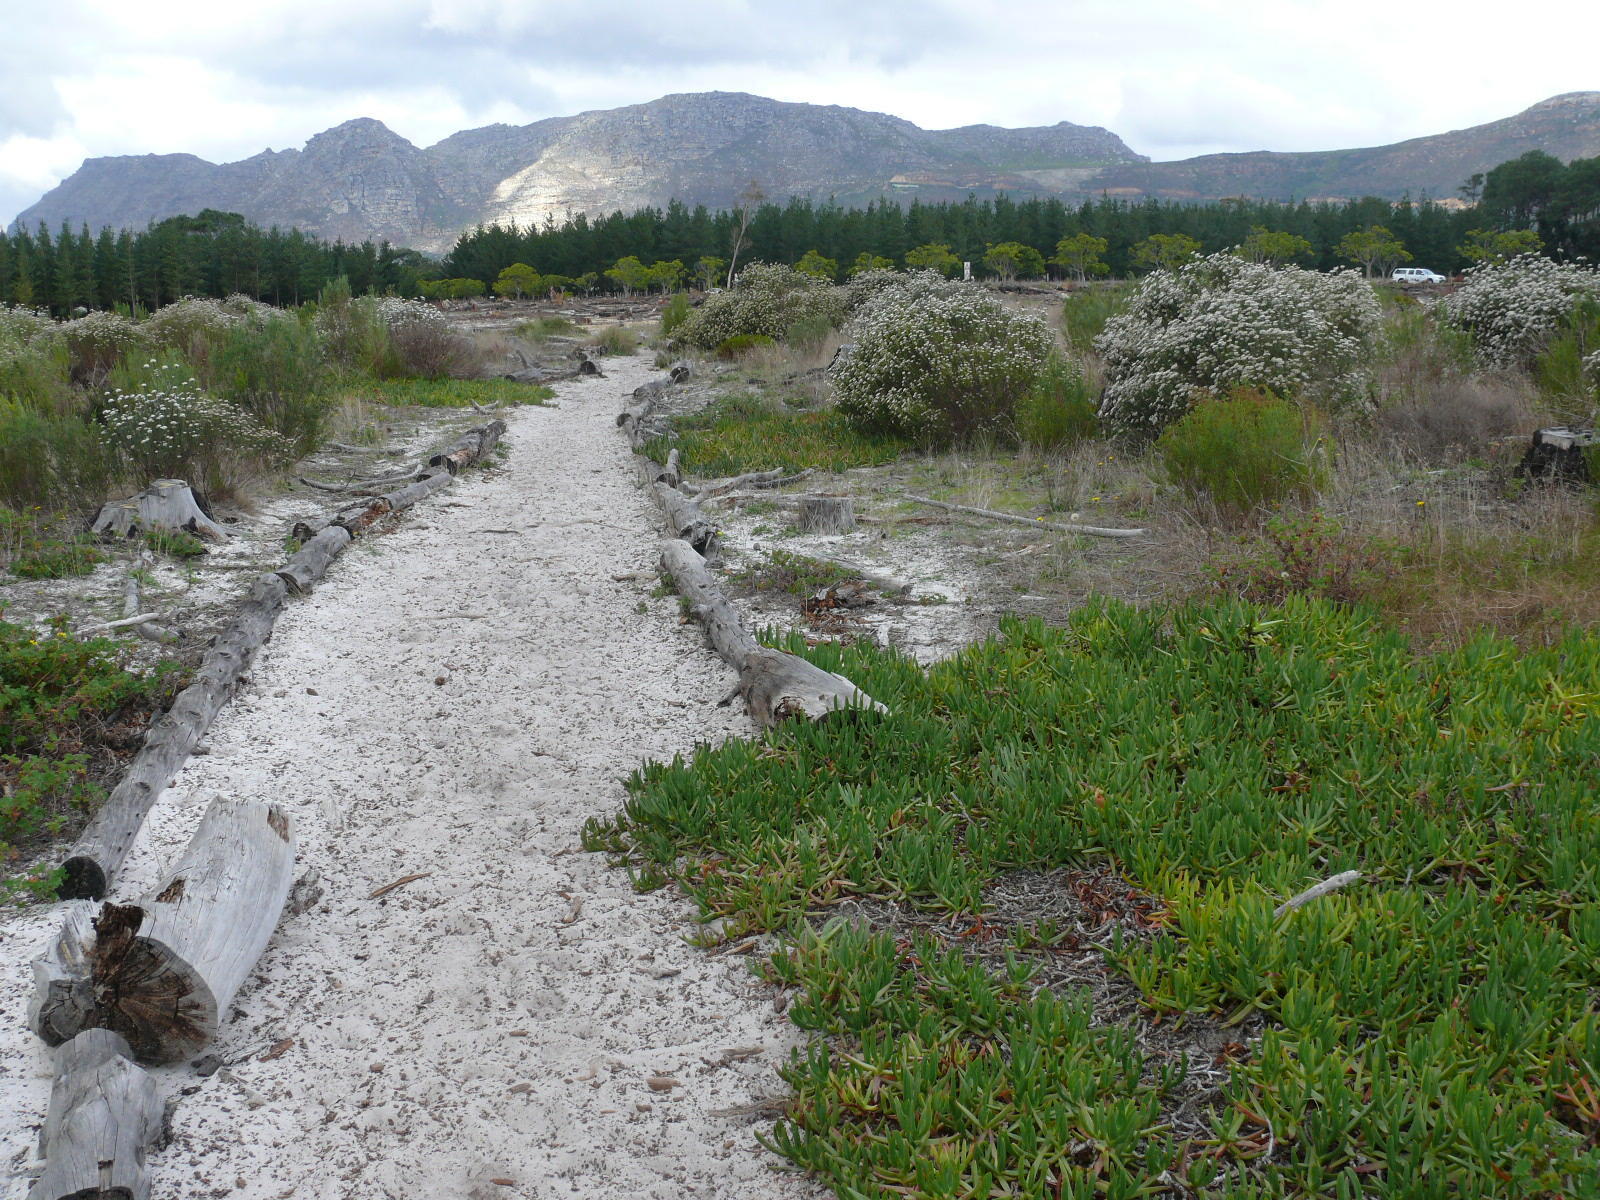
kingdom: Plantae
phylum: Tracheophyta
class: Magnoliopsida
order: Caryophyllales
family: Aizoaceae
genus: Carpobrotus
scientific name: Carpobrotus edulis
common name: Hottentot-fig
